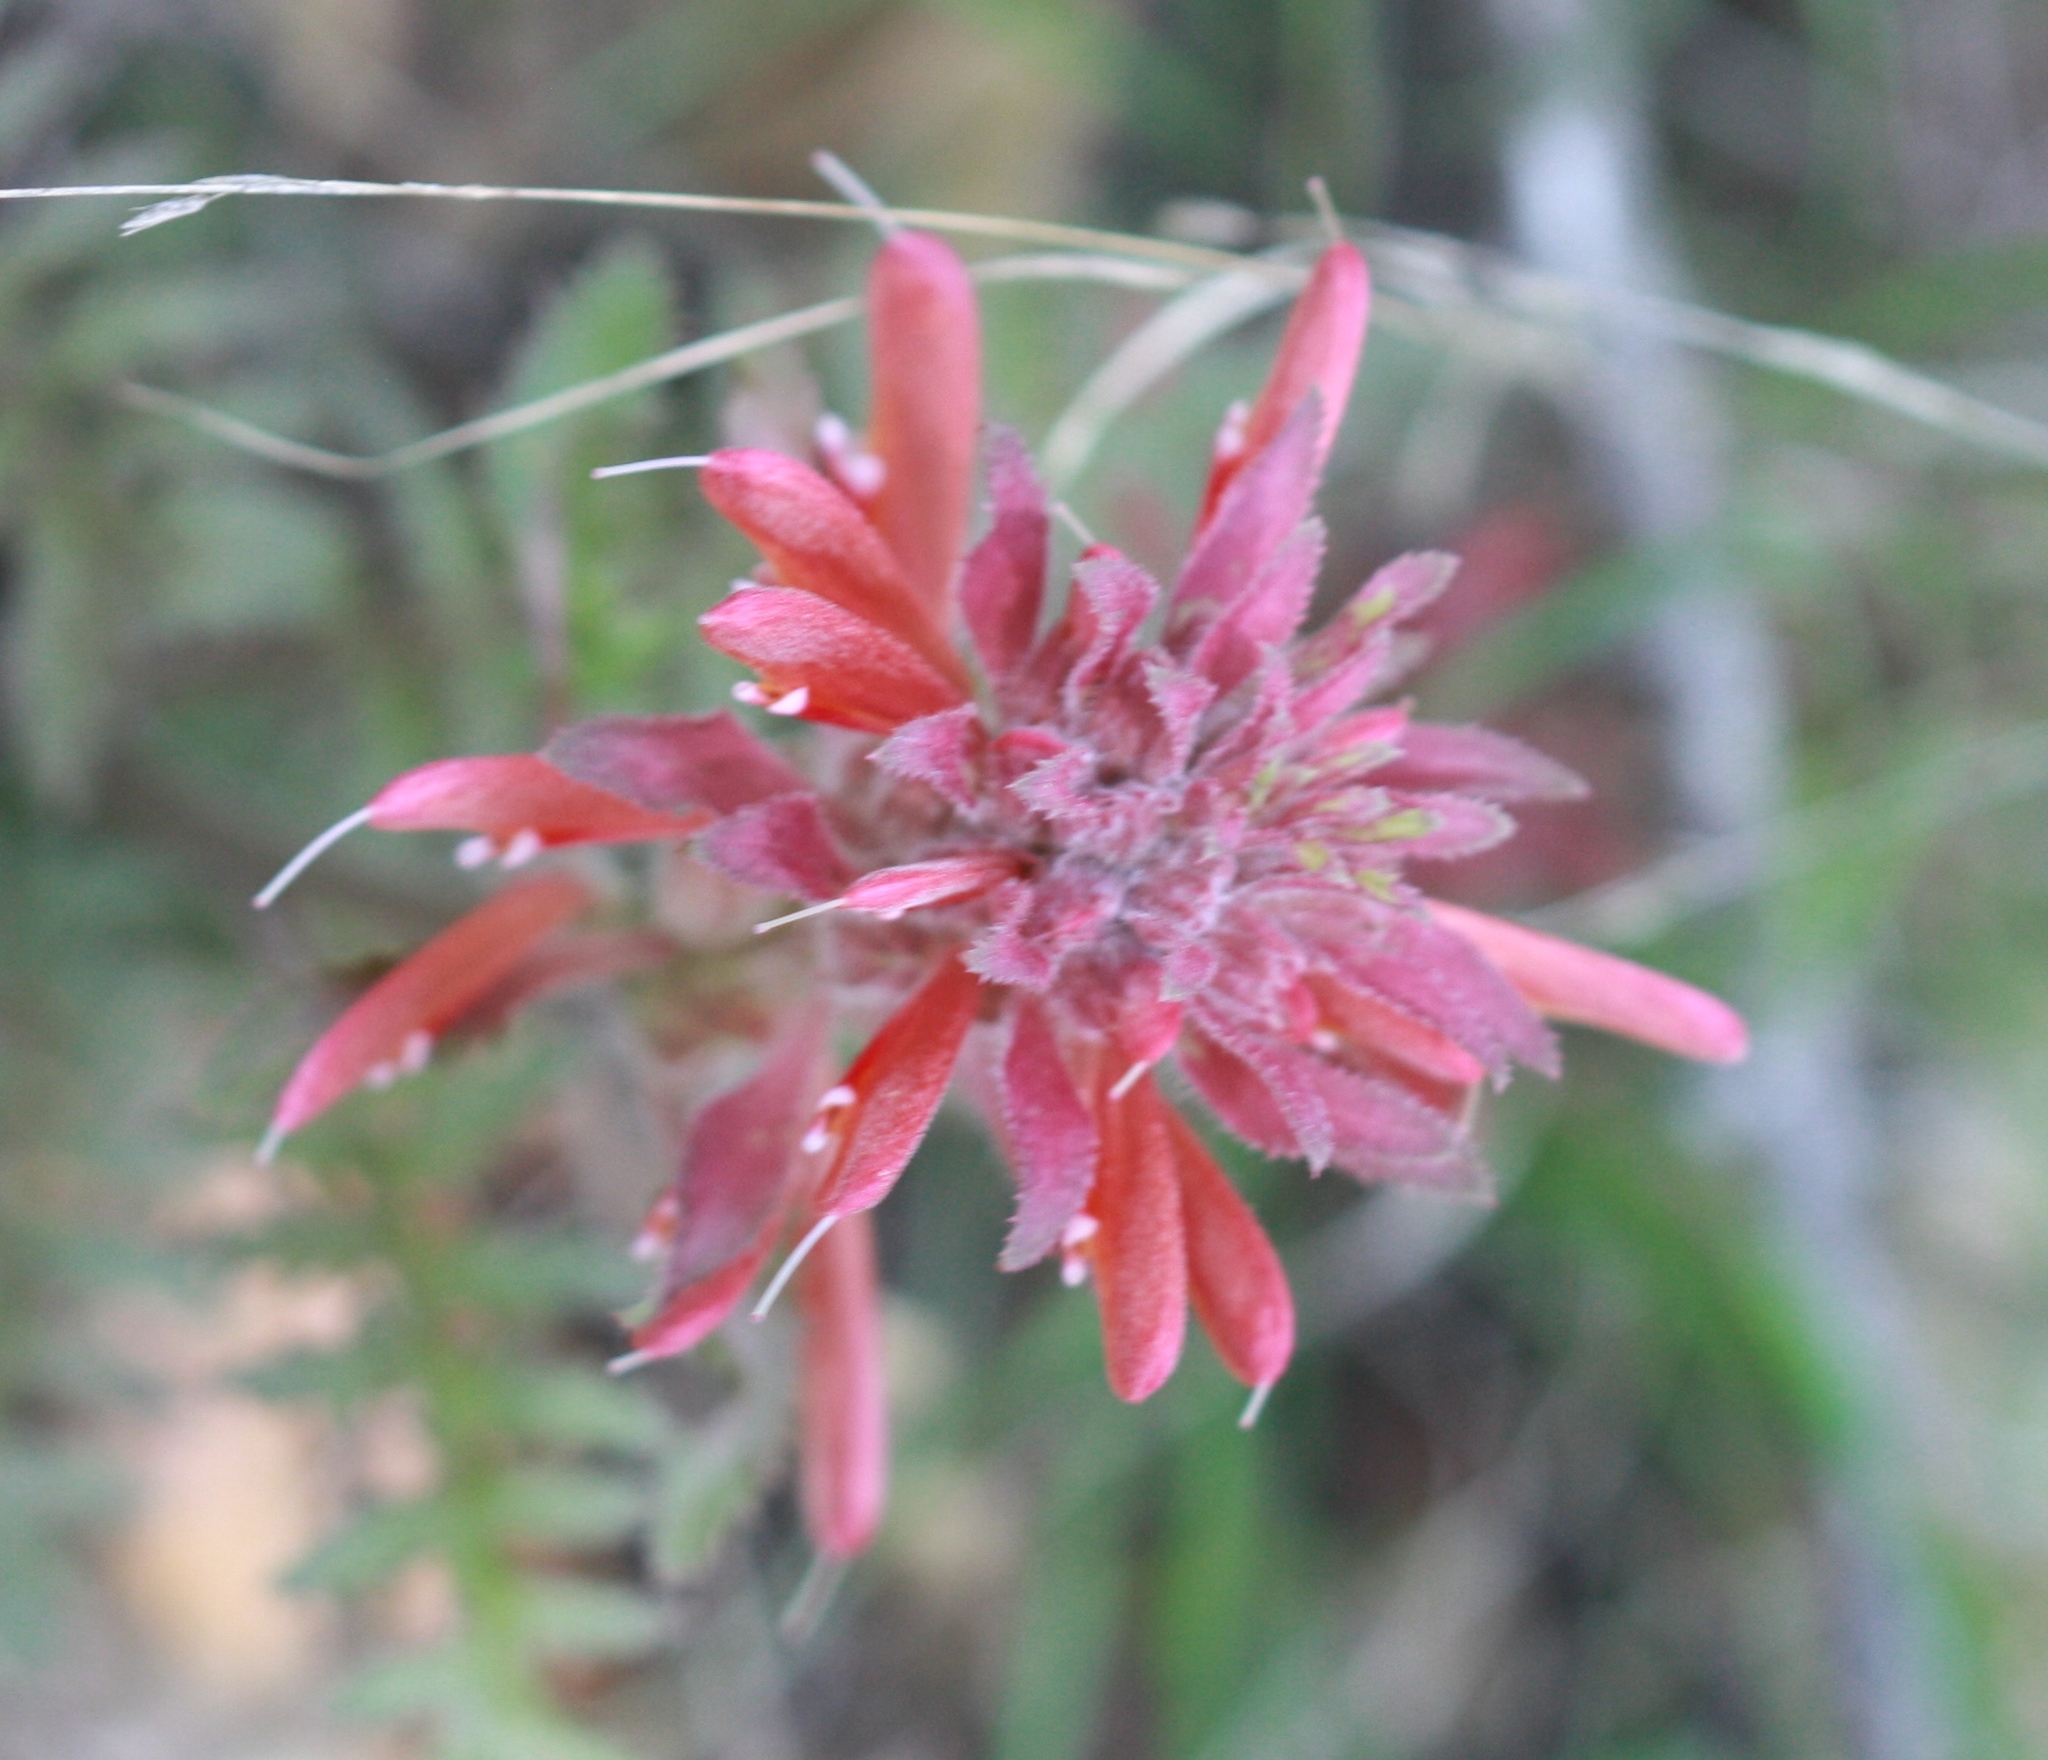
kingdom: Plantae
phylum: Tracheophyta
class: Magnoliopsida
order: Lamiales
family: Orobanchaceae
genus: Pedicularis
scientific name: Pedicularis densiflora
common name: Indian warrior
